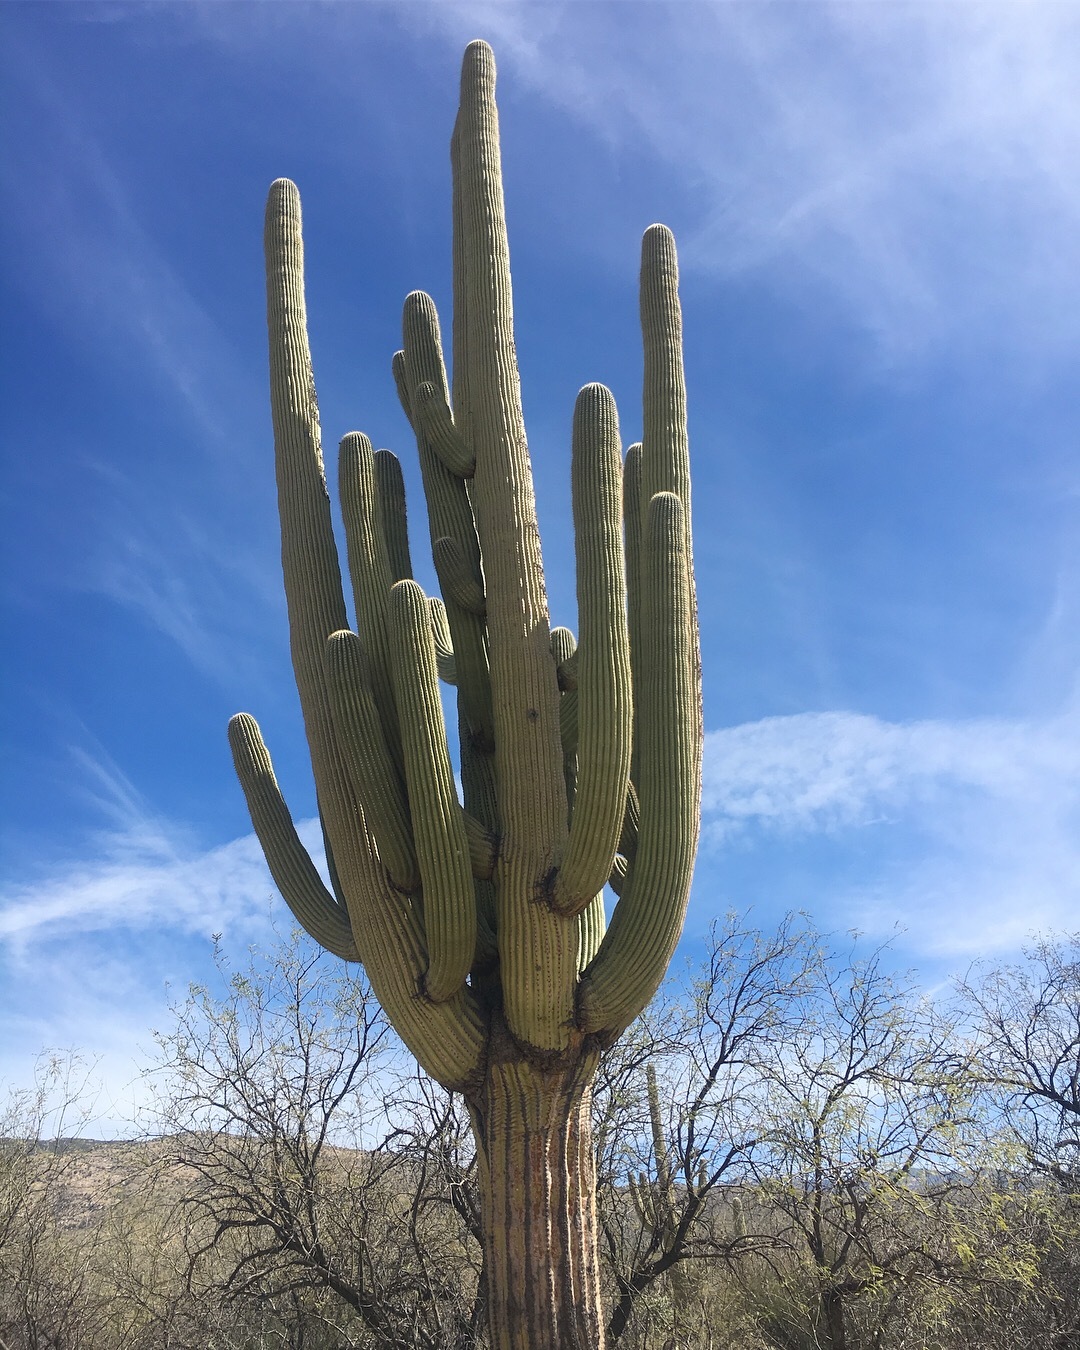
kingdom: Plantae
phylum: Tracheophyta
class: Magnoliopsida
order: Caryophyllales
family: Cactaceae
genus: Carnegiea
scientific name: Carnegiea gigantea
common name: Saguaro
